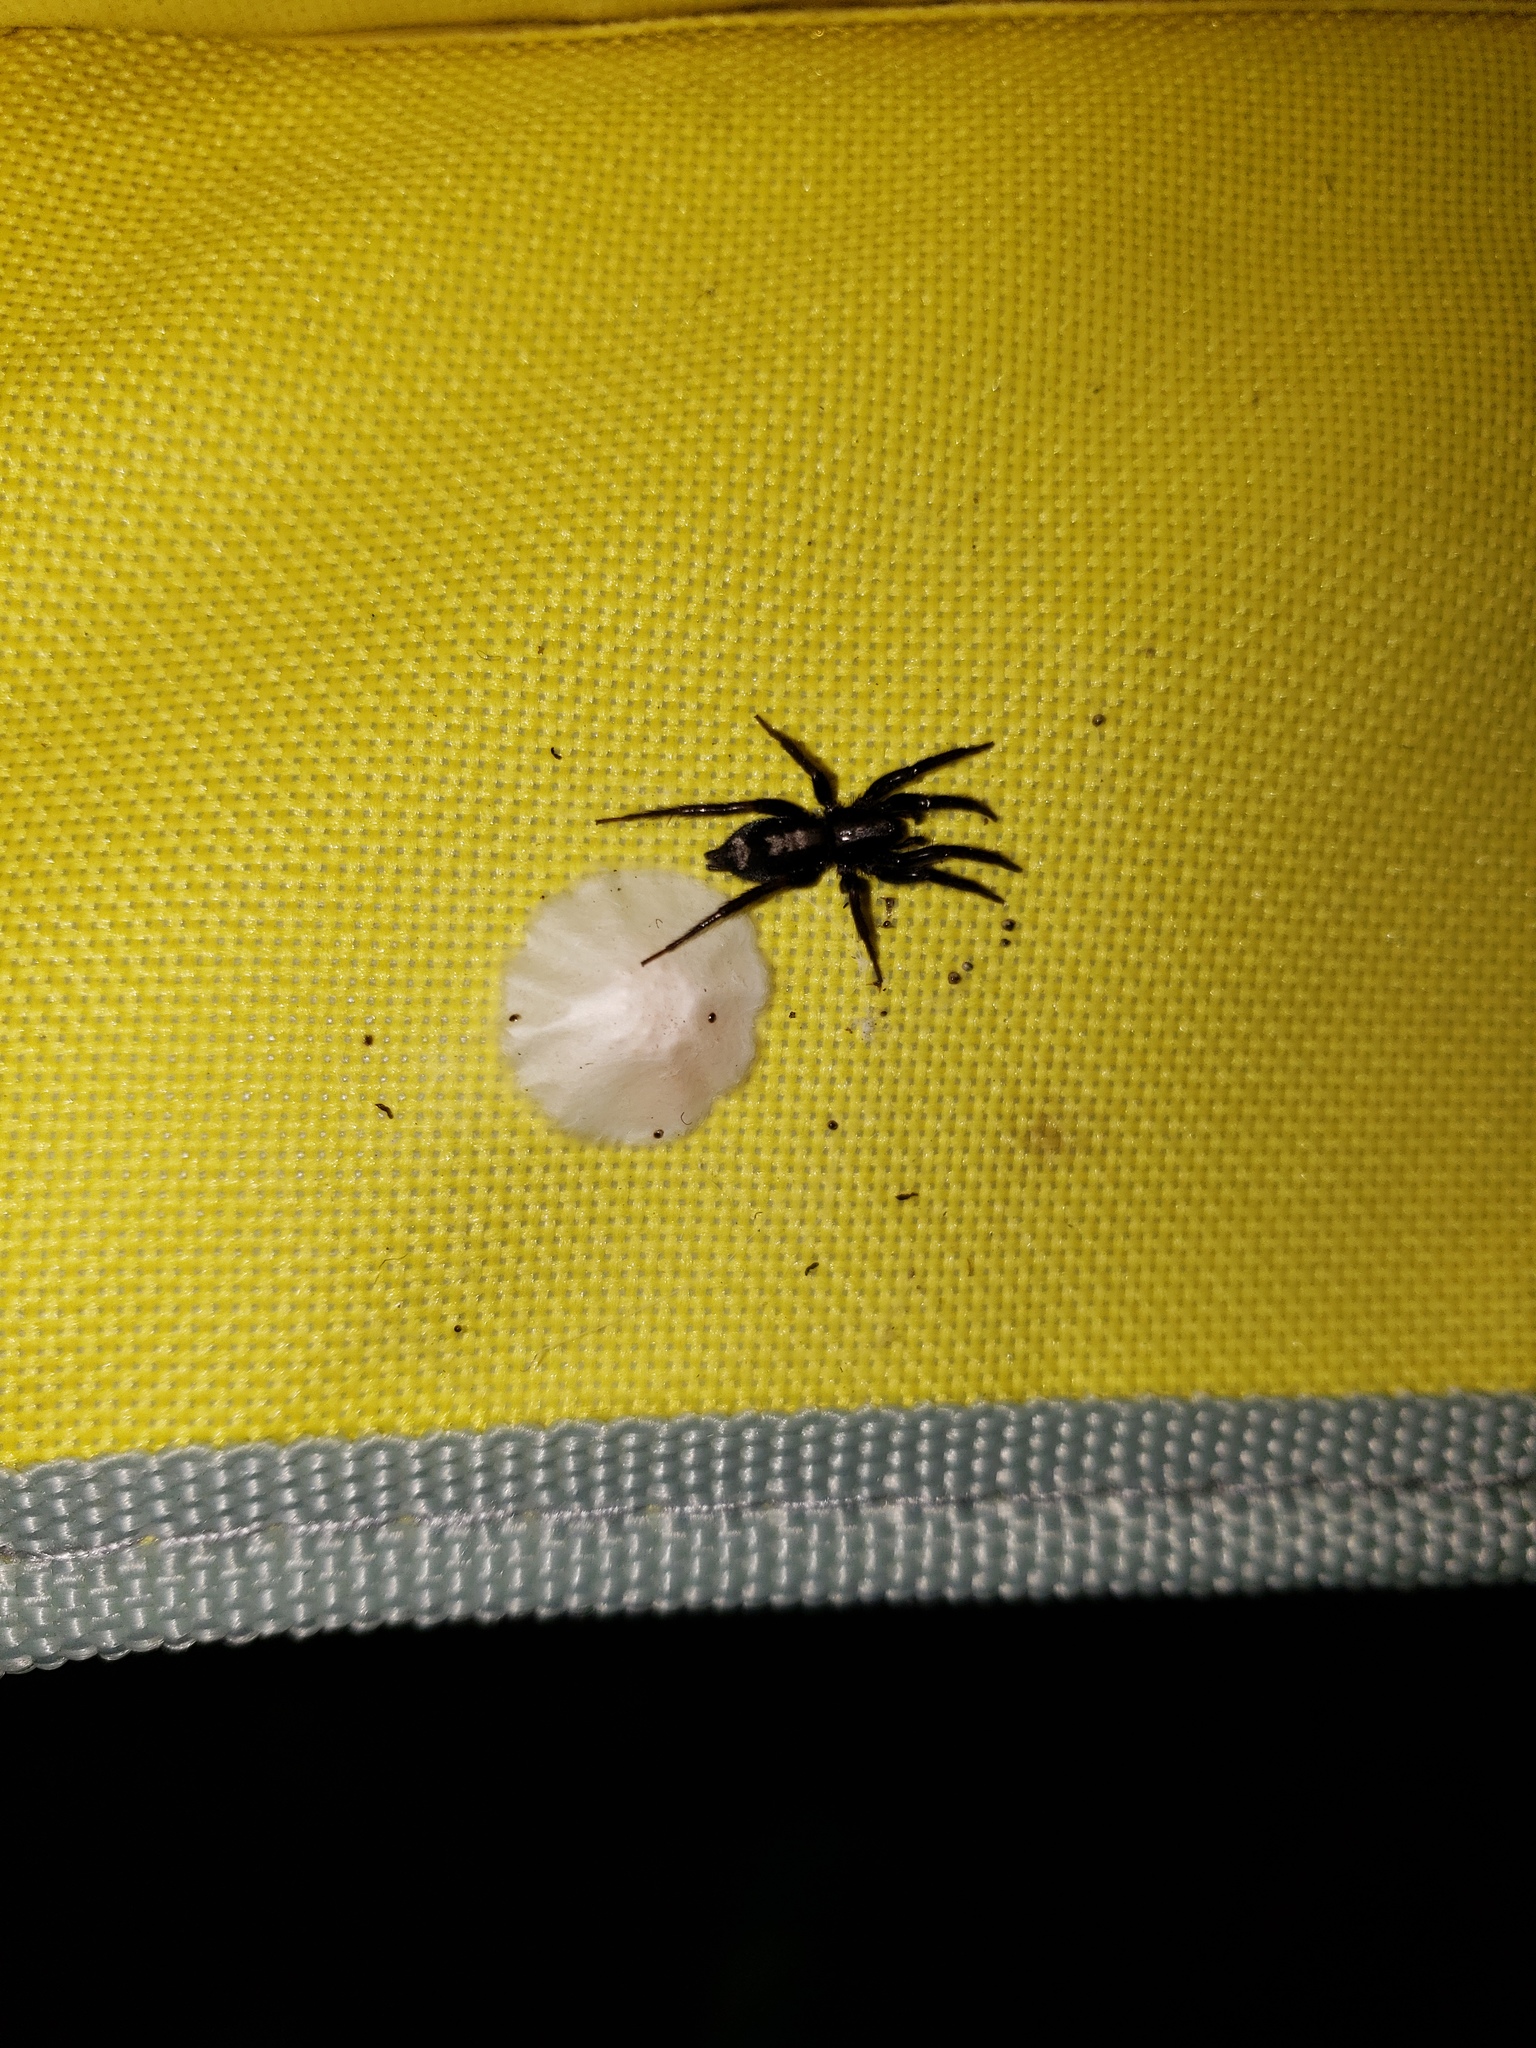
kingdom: Animalia
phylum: Arthropoda
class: Arachnida
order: Araneae
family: Gnaphosidae
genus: Herpyllus
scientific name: Herpyllus ecclesiasticus
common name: Eastern parson spider
